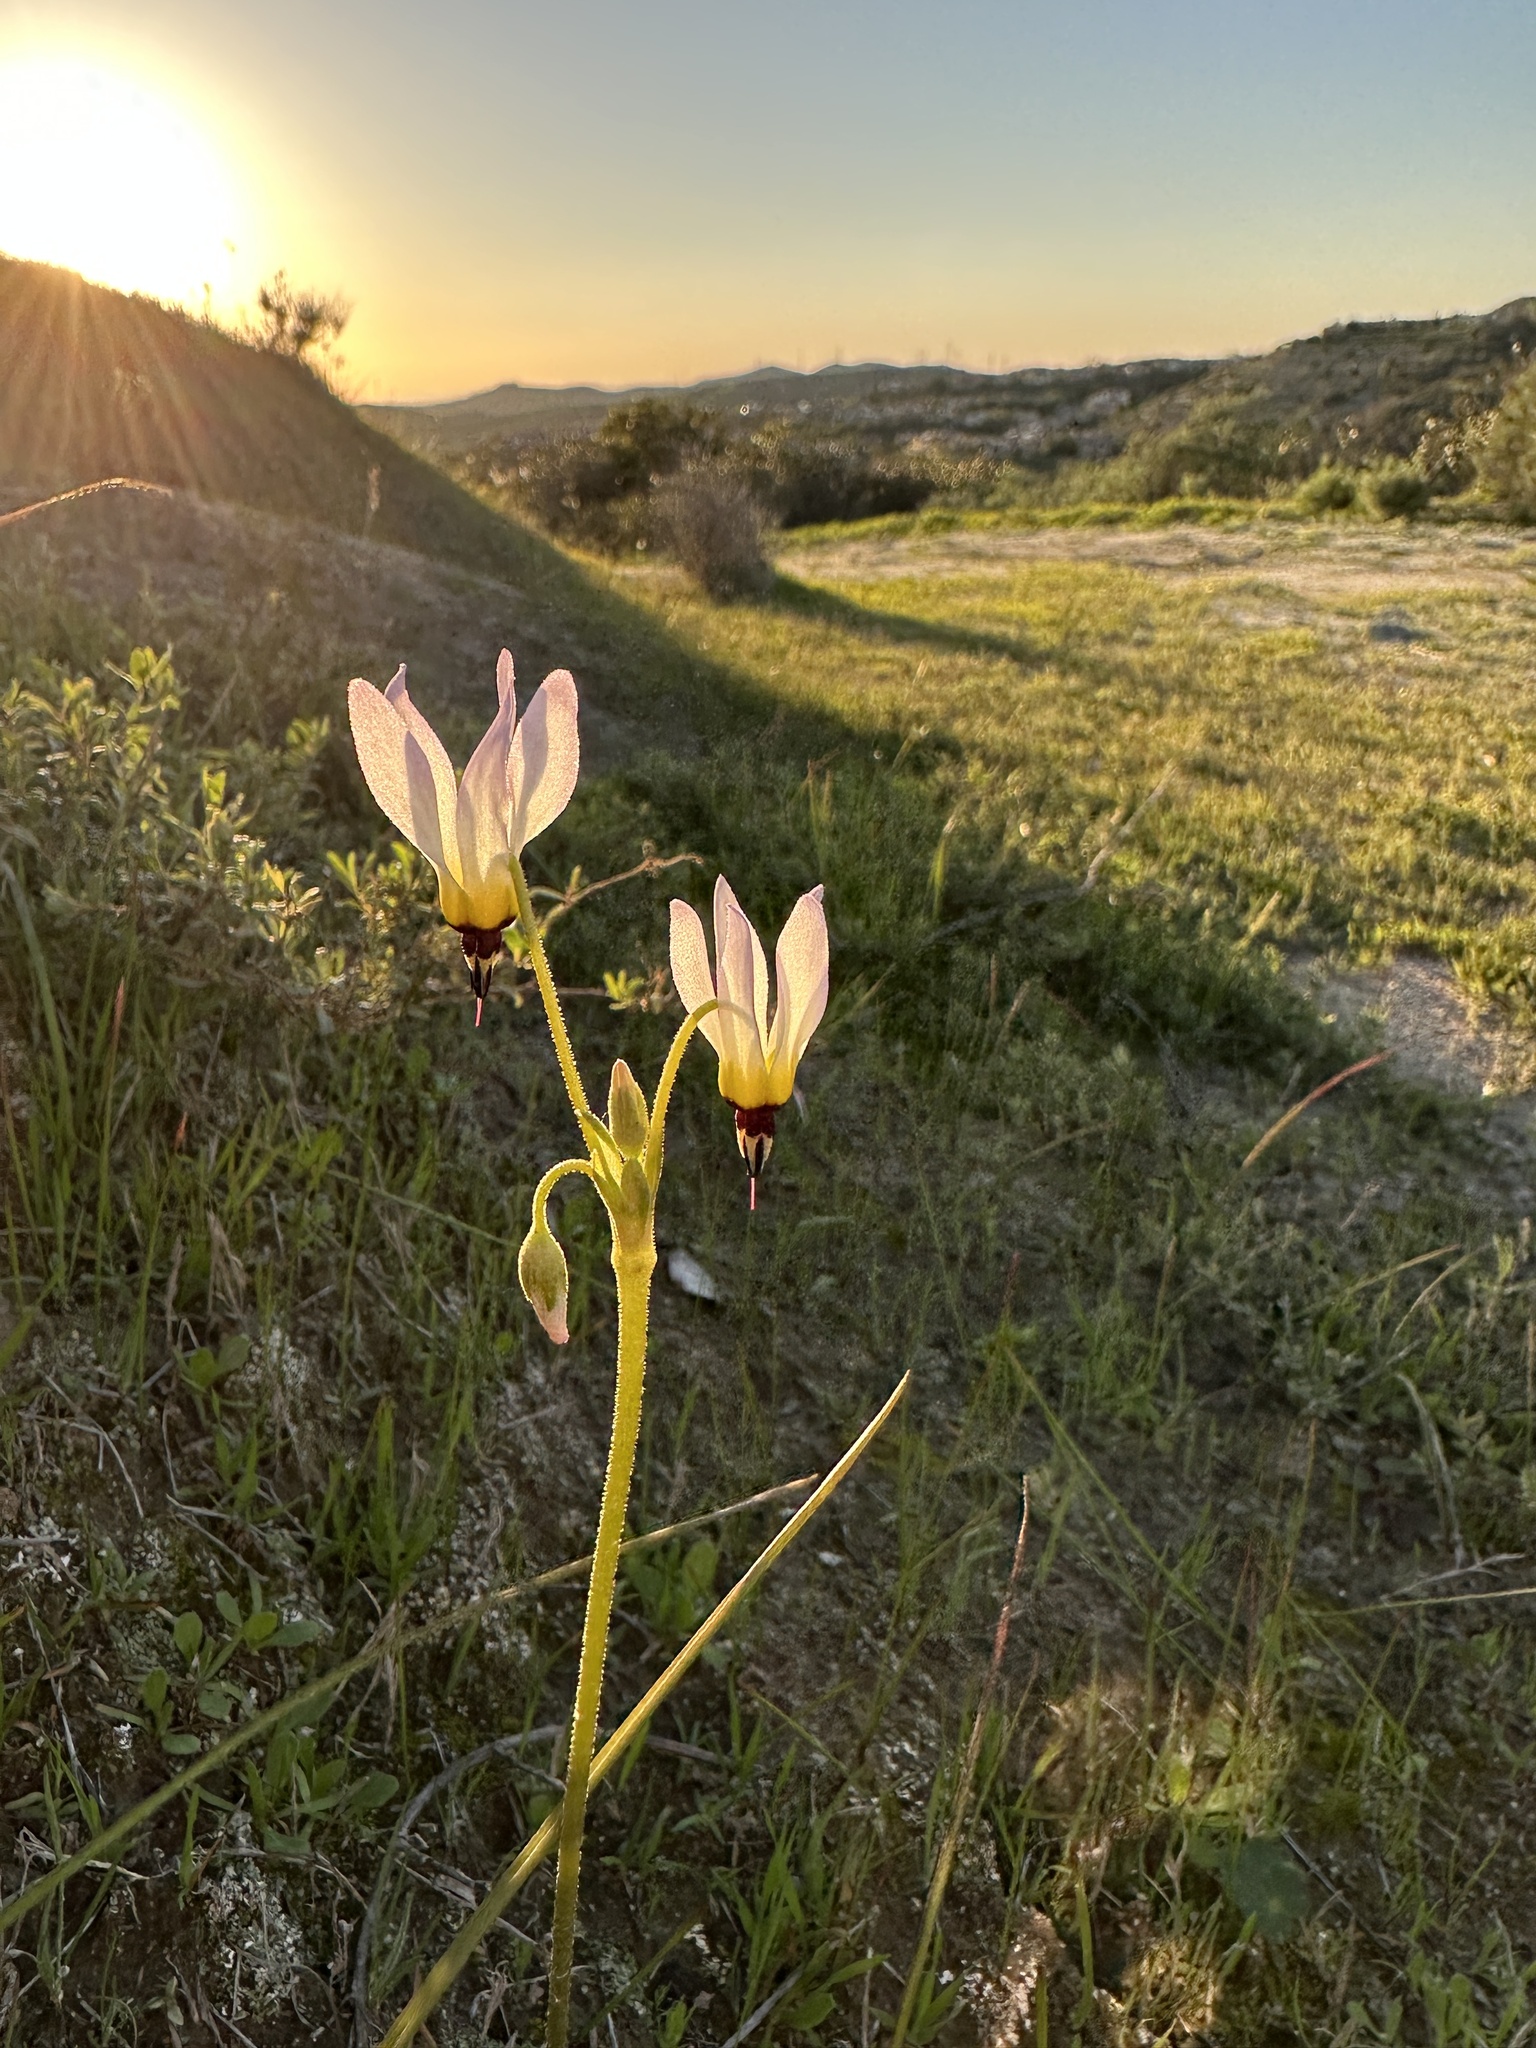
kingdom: Plantae
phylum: Tracheophyta
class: Magnoliopsida
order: Ericales
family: Primulaceae
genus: Dodecatheon
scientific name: Dodecatheon clevelandii
